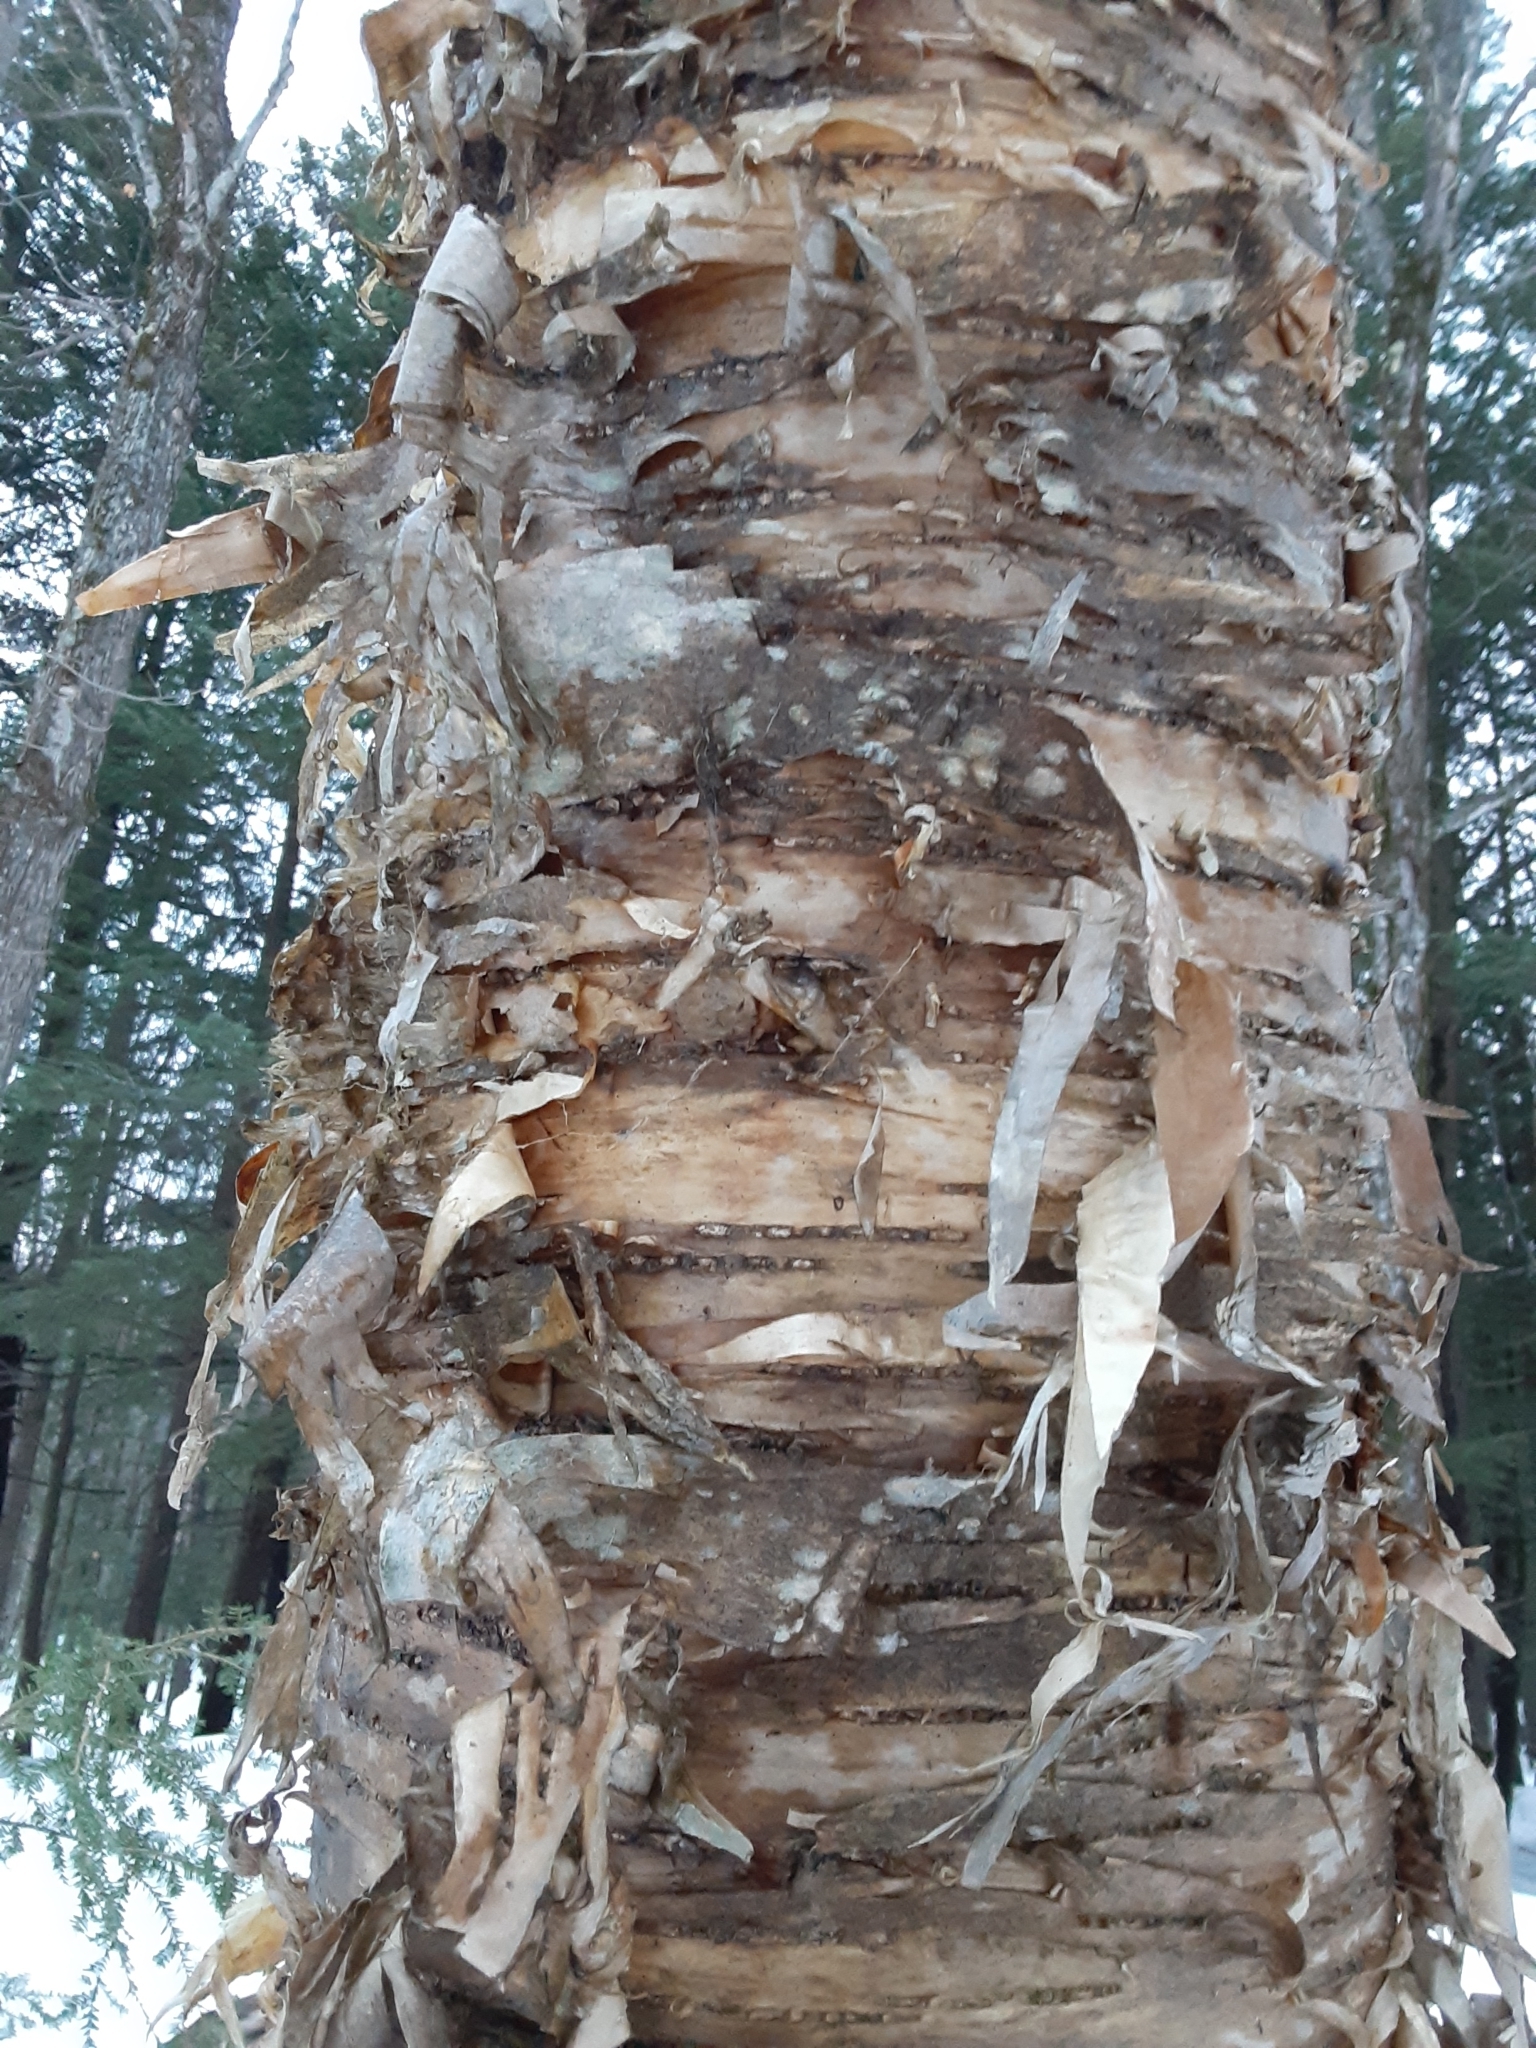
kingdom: Plantae
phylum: Tracheophyta
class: Magnoliopsida
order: Fagales
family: Betulaceae
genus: Betula
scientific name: Betula alleghaniensis
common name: Yellow birch
